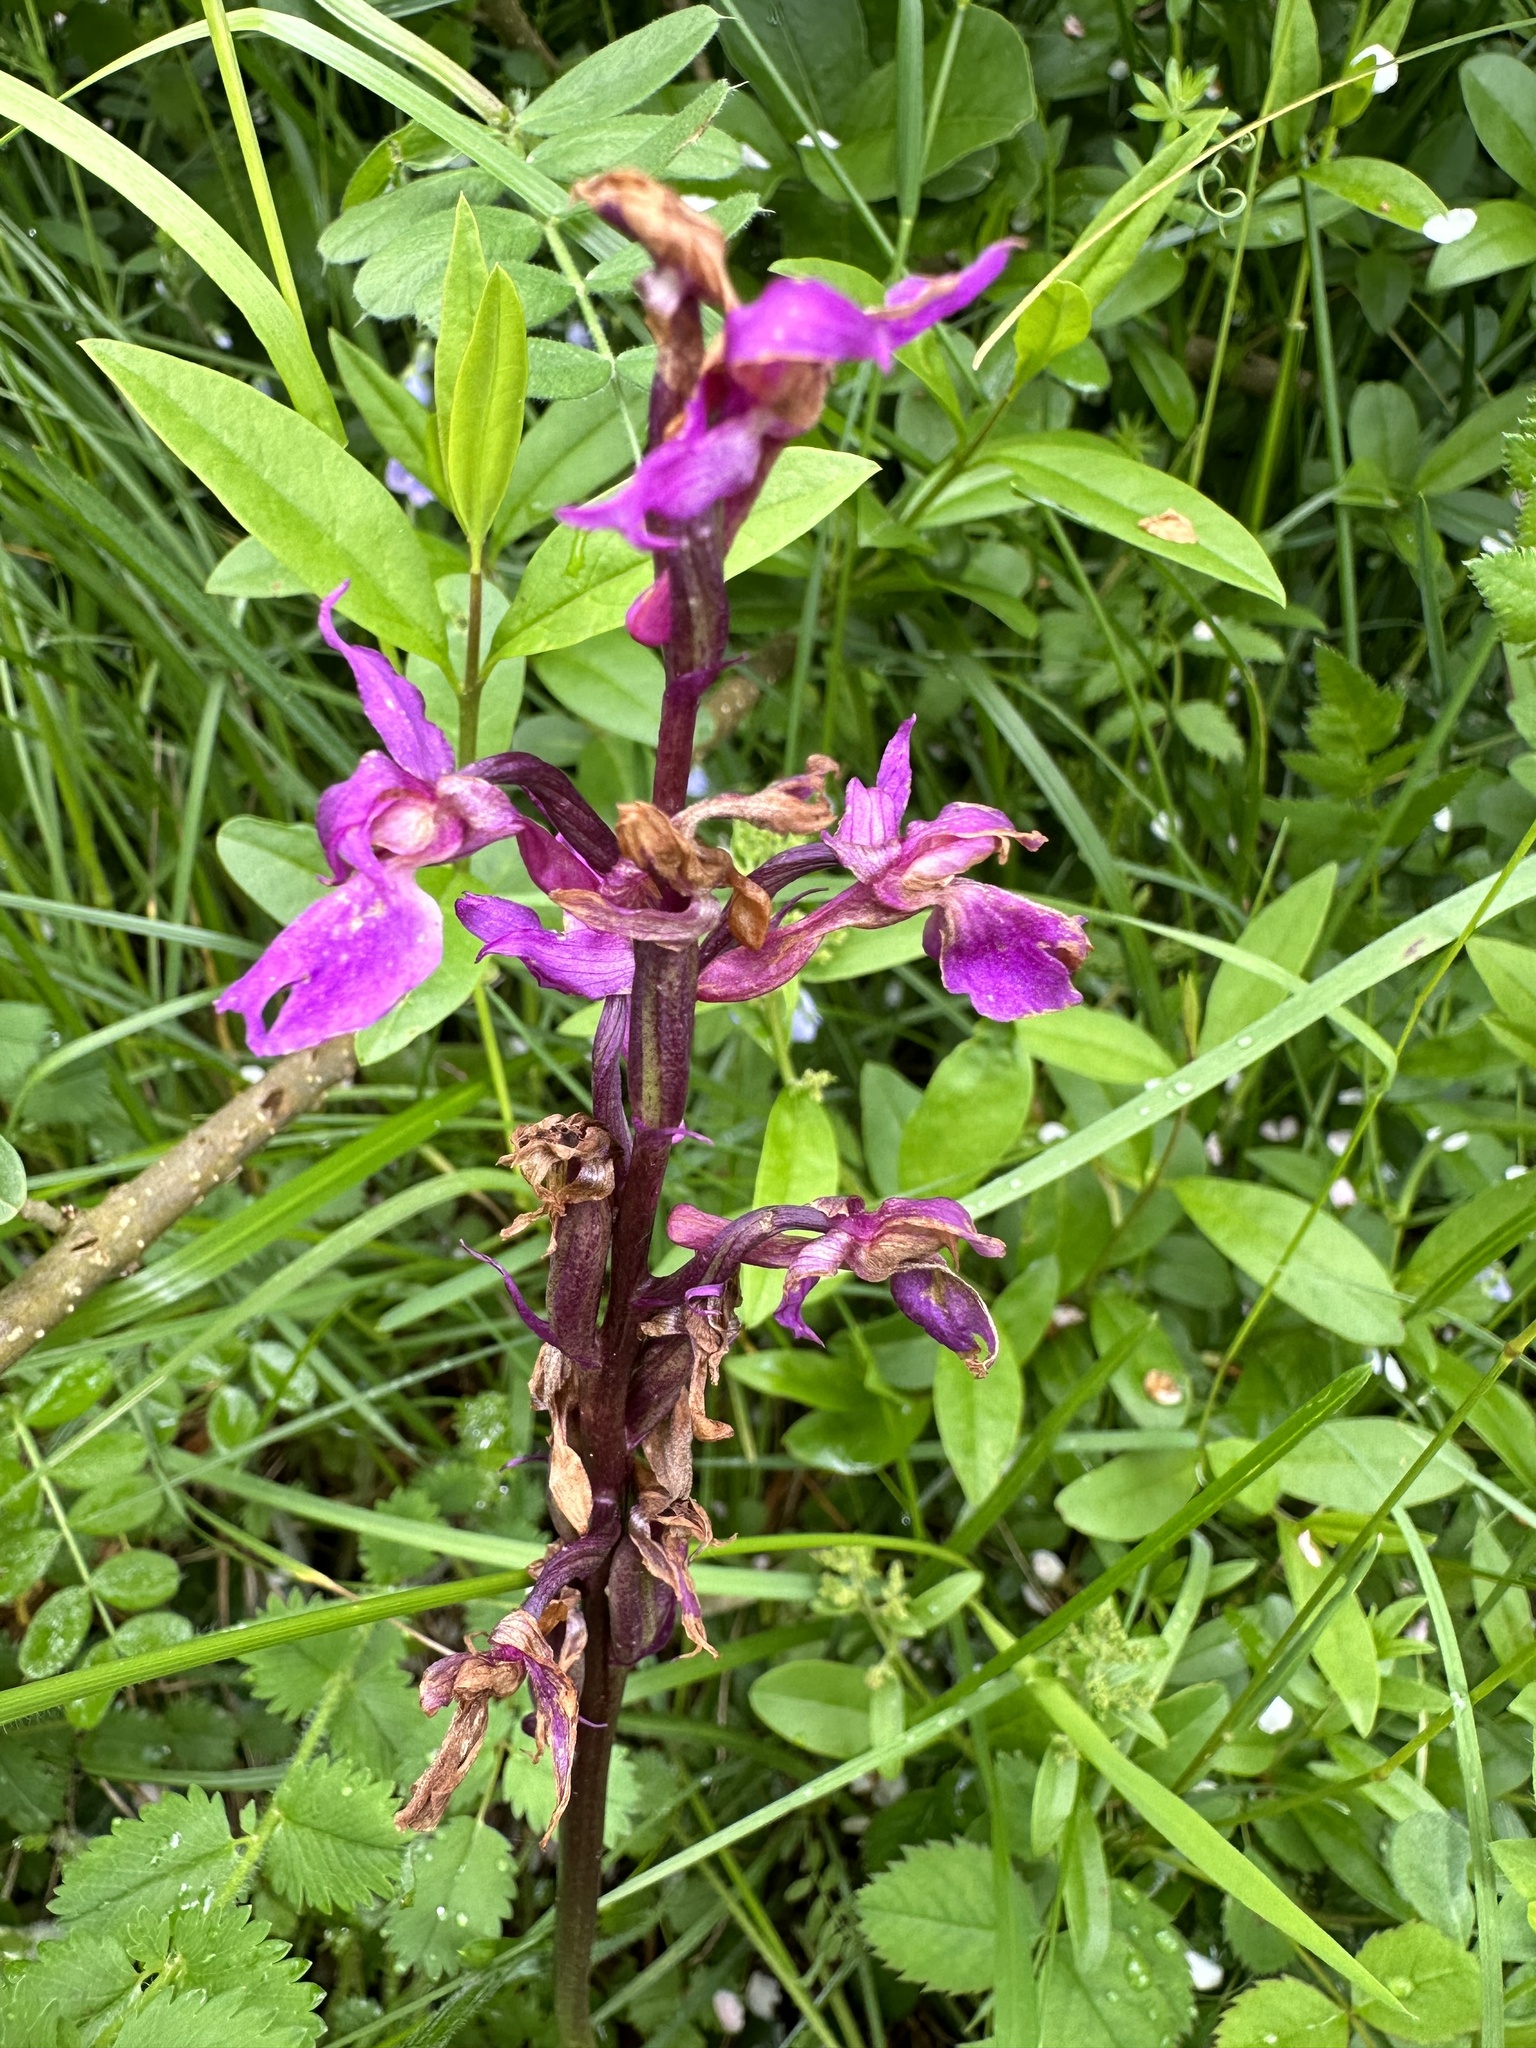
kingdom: Plantae
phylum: Tracheophyta
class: Liliopsida
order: Asparagales
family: Orchidaceae
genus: Orchis
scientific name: Orchis mascula
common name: Early-purple orchid
